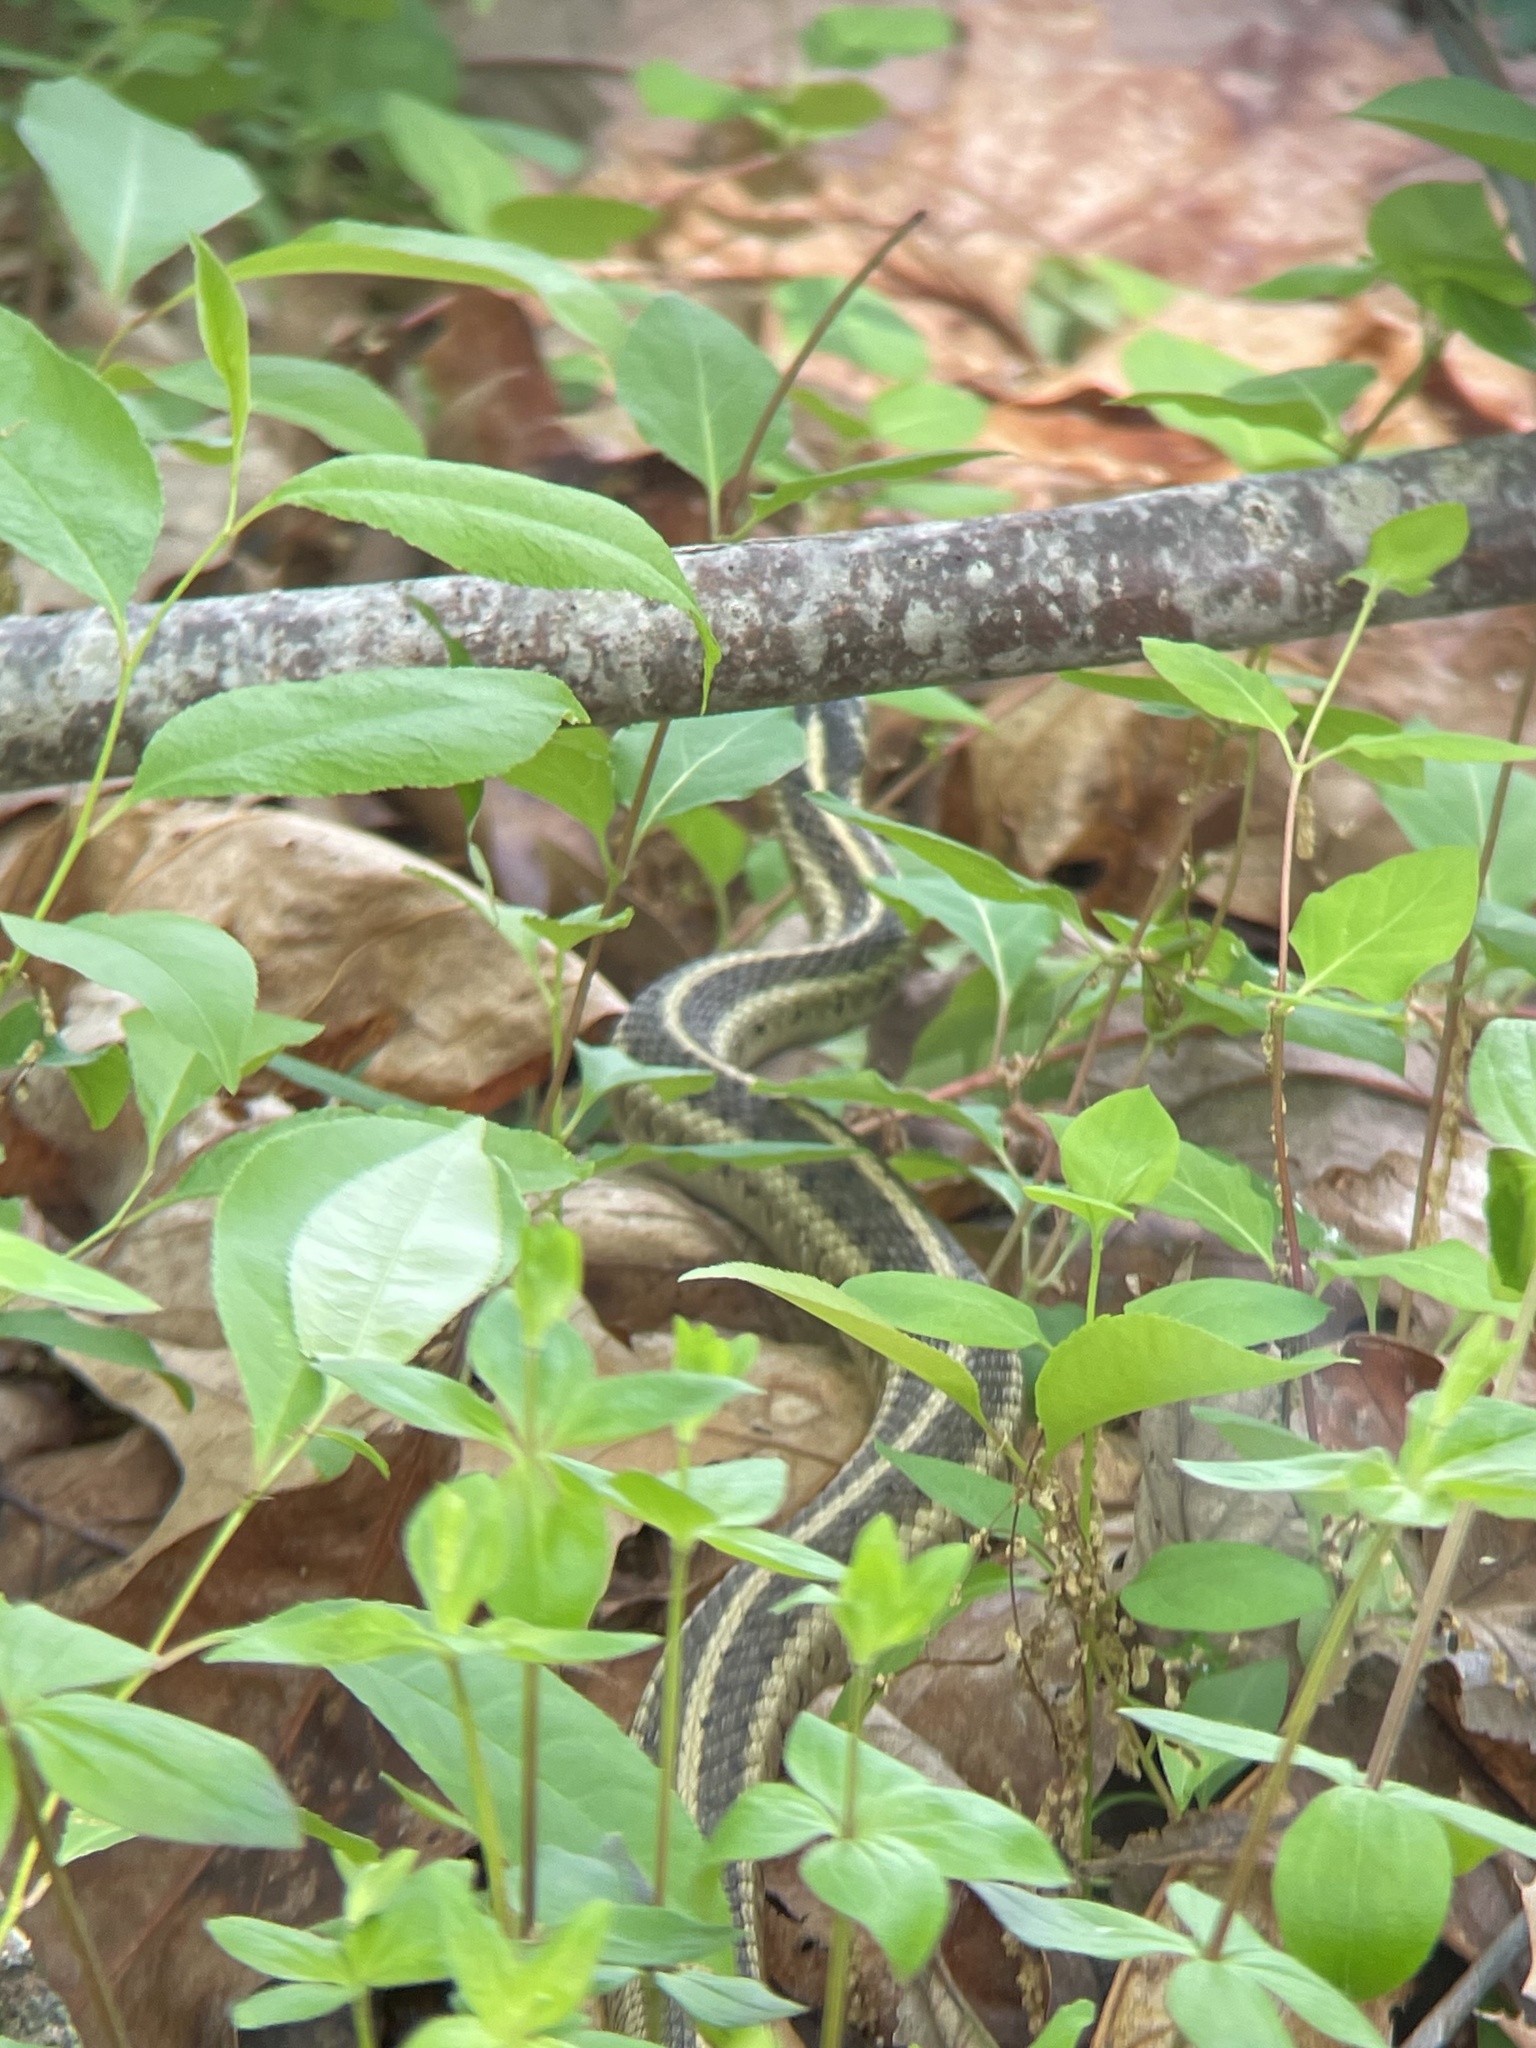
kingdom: Animalia
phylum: Chordata
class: Squamata
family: Colubridae
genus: Thamnophis
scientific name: Thamnophis sirtalis
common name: Common garter snake
